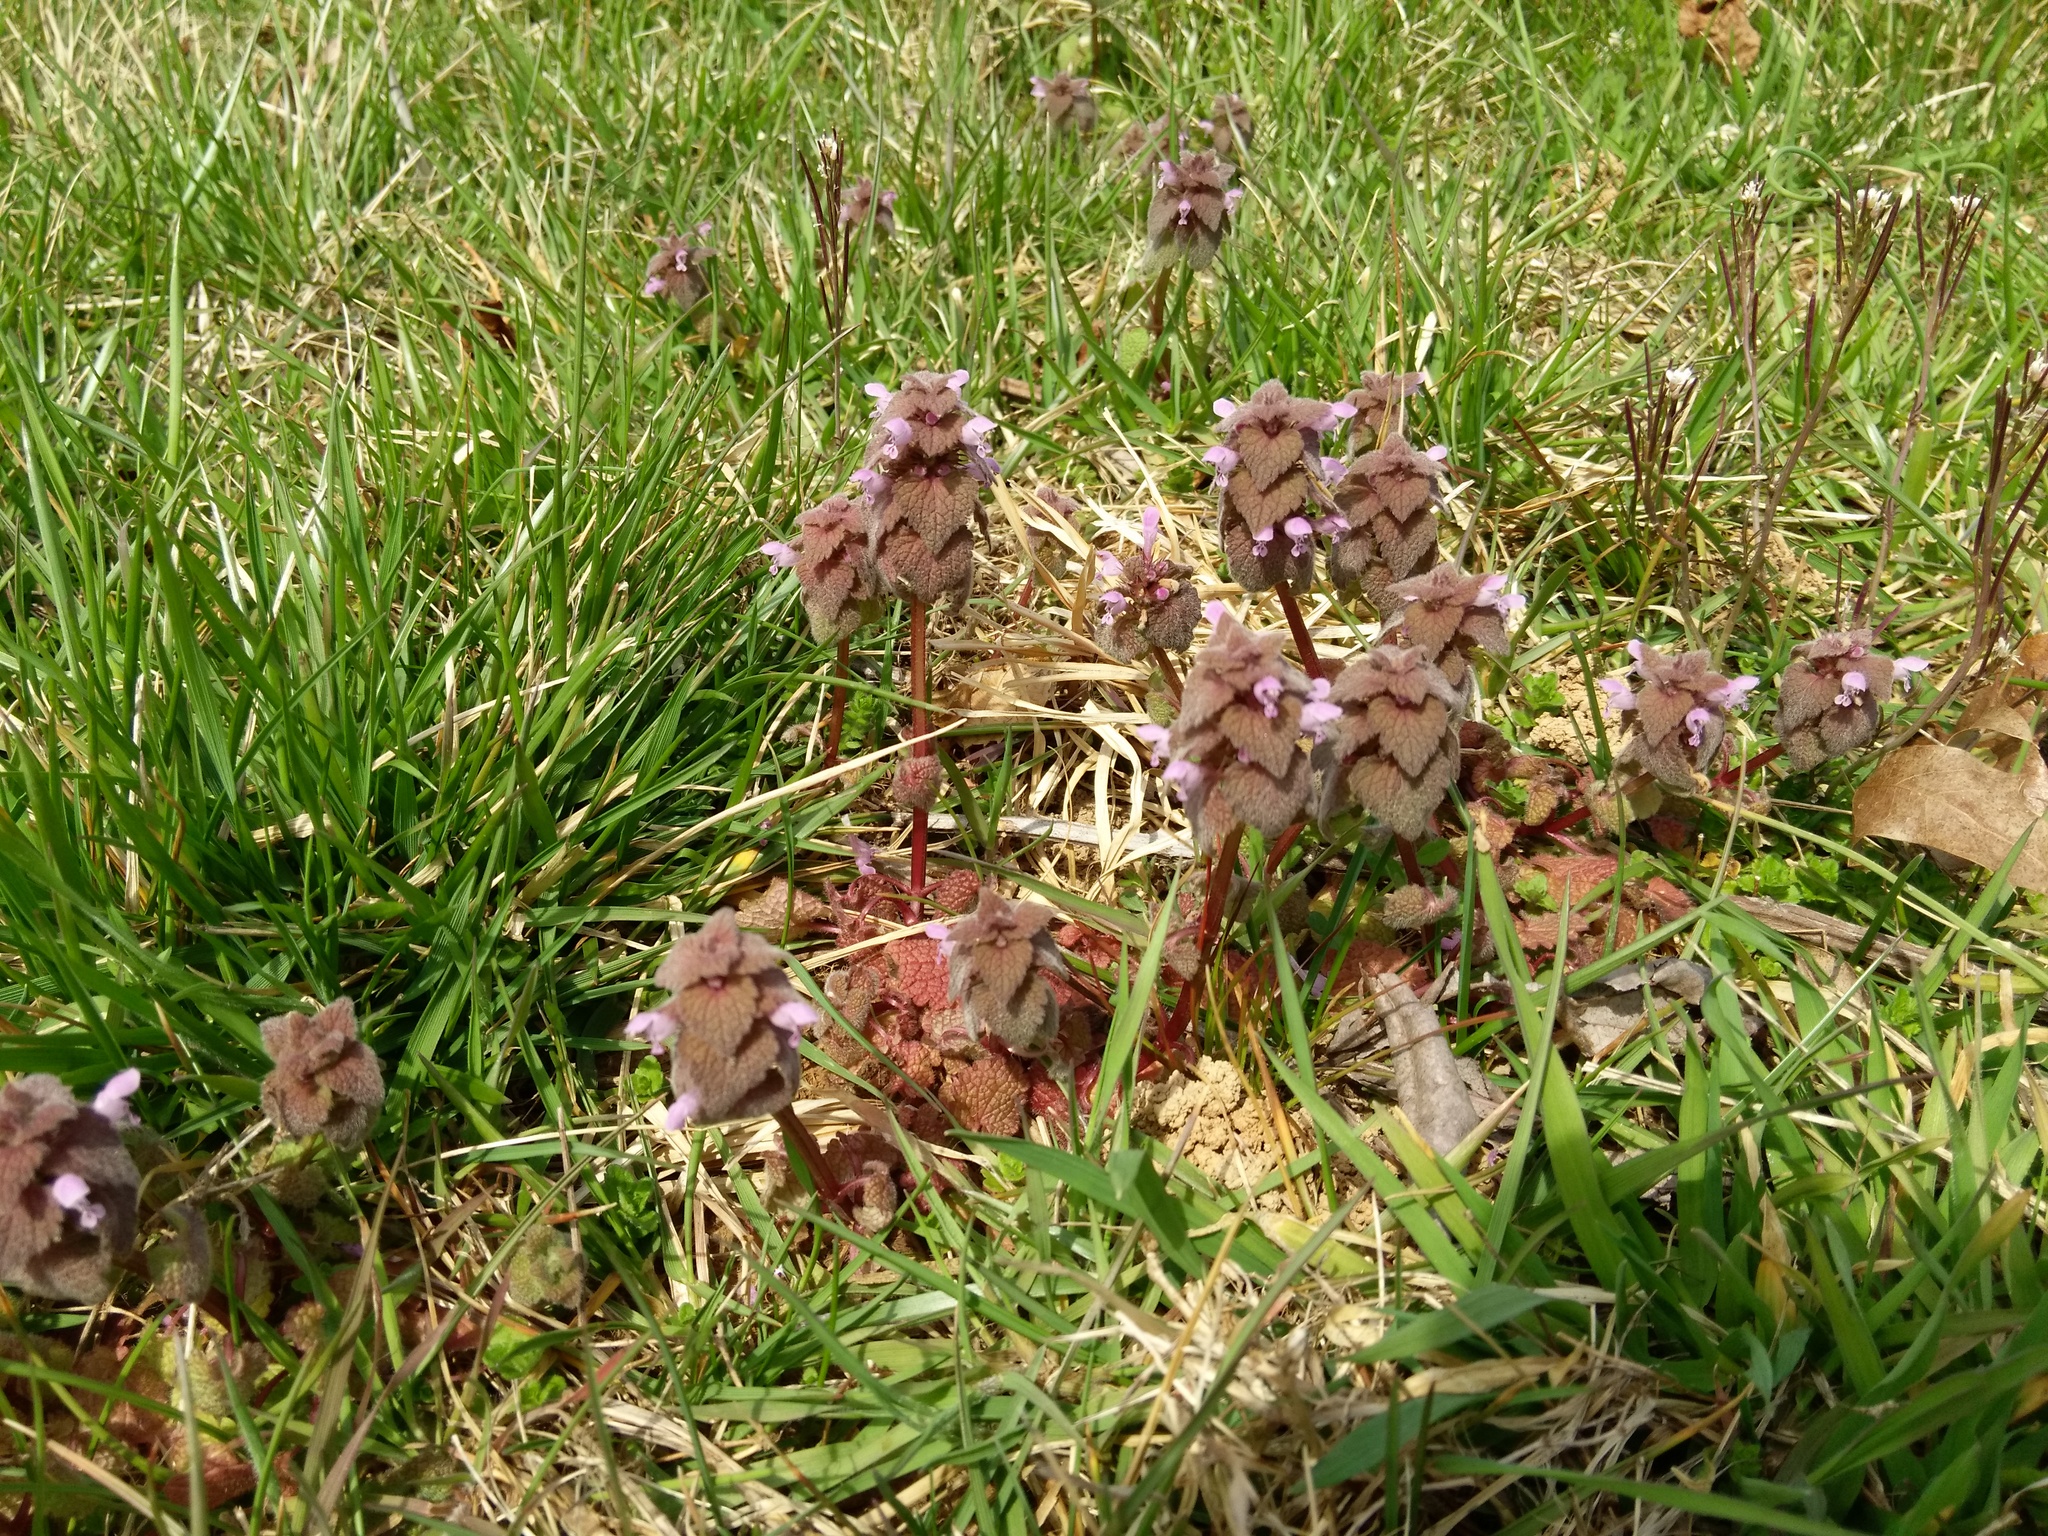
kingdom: Plantae
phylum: Tracheophyta
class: Magnoliopsida
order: Lamiales
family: Lamiaceae
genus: Lamium
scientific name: Lamium purpureum
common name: Red dead-nettle
